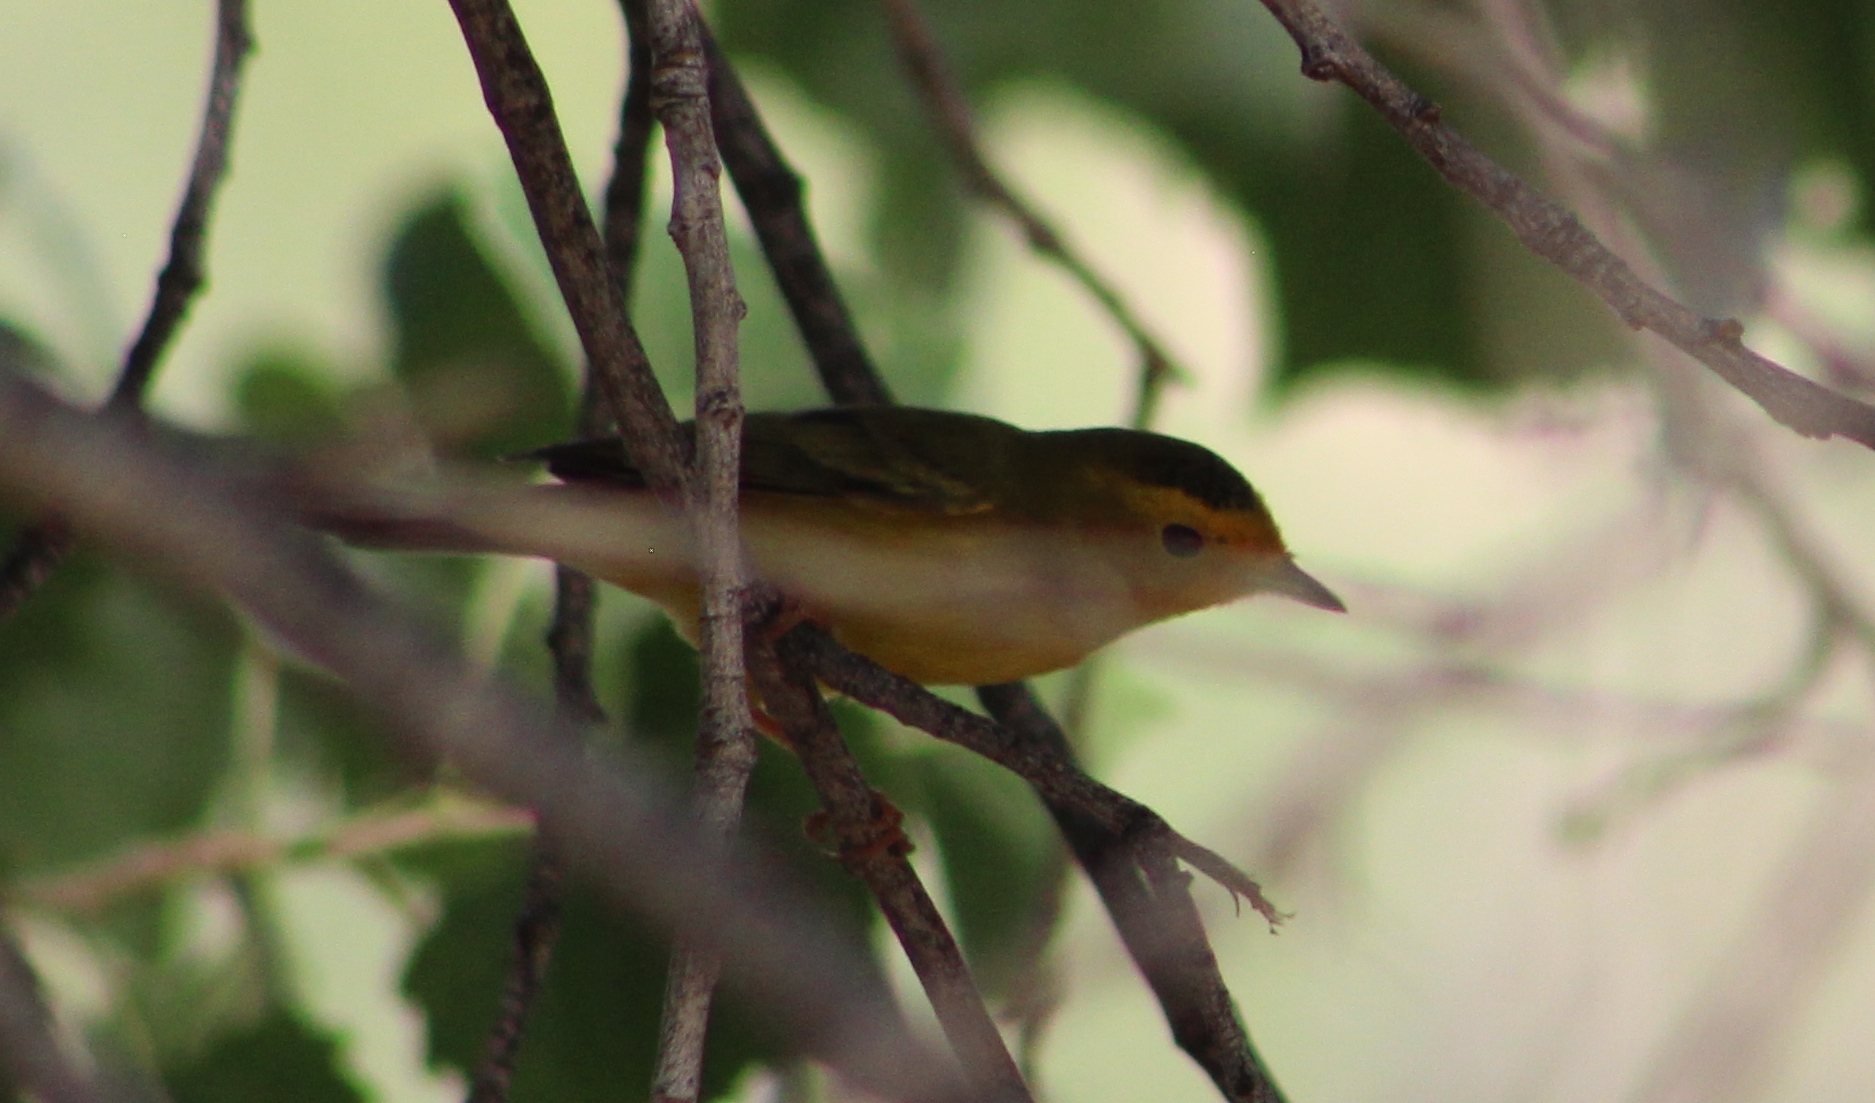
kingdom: Animalia
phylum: Chordata
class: Aves
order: Passeriformes
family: Parulidae
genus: Cardellina
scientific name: Cardellina pusilla
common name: Wilson's warbler
